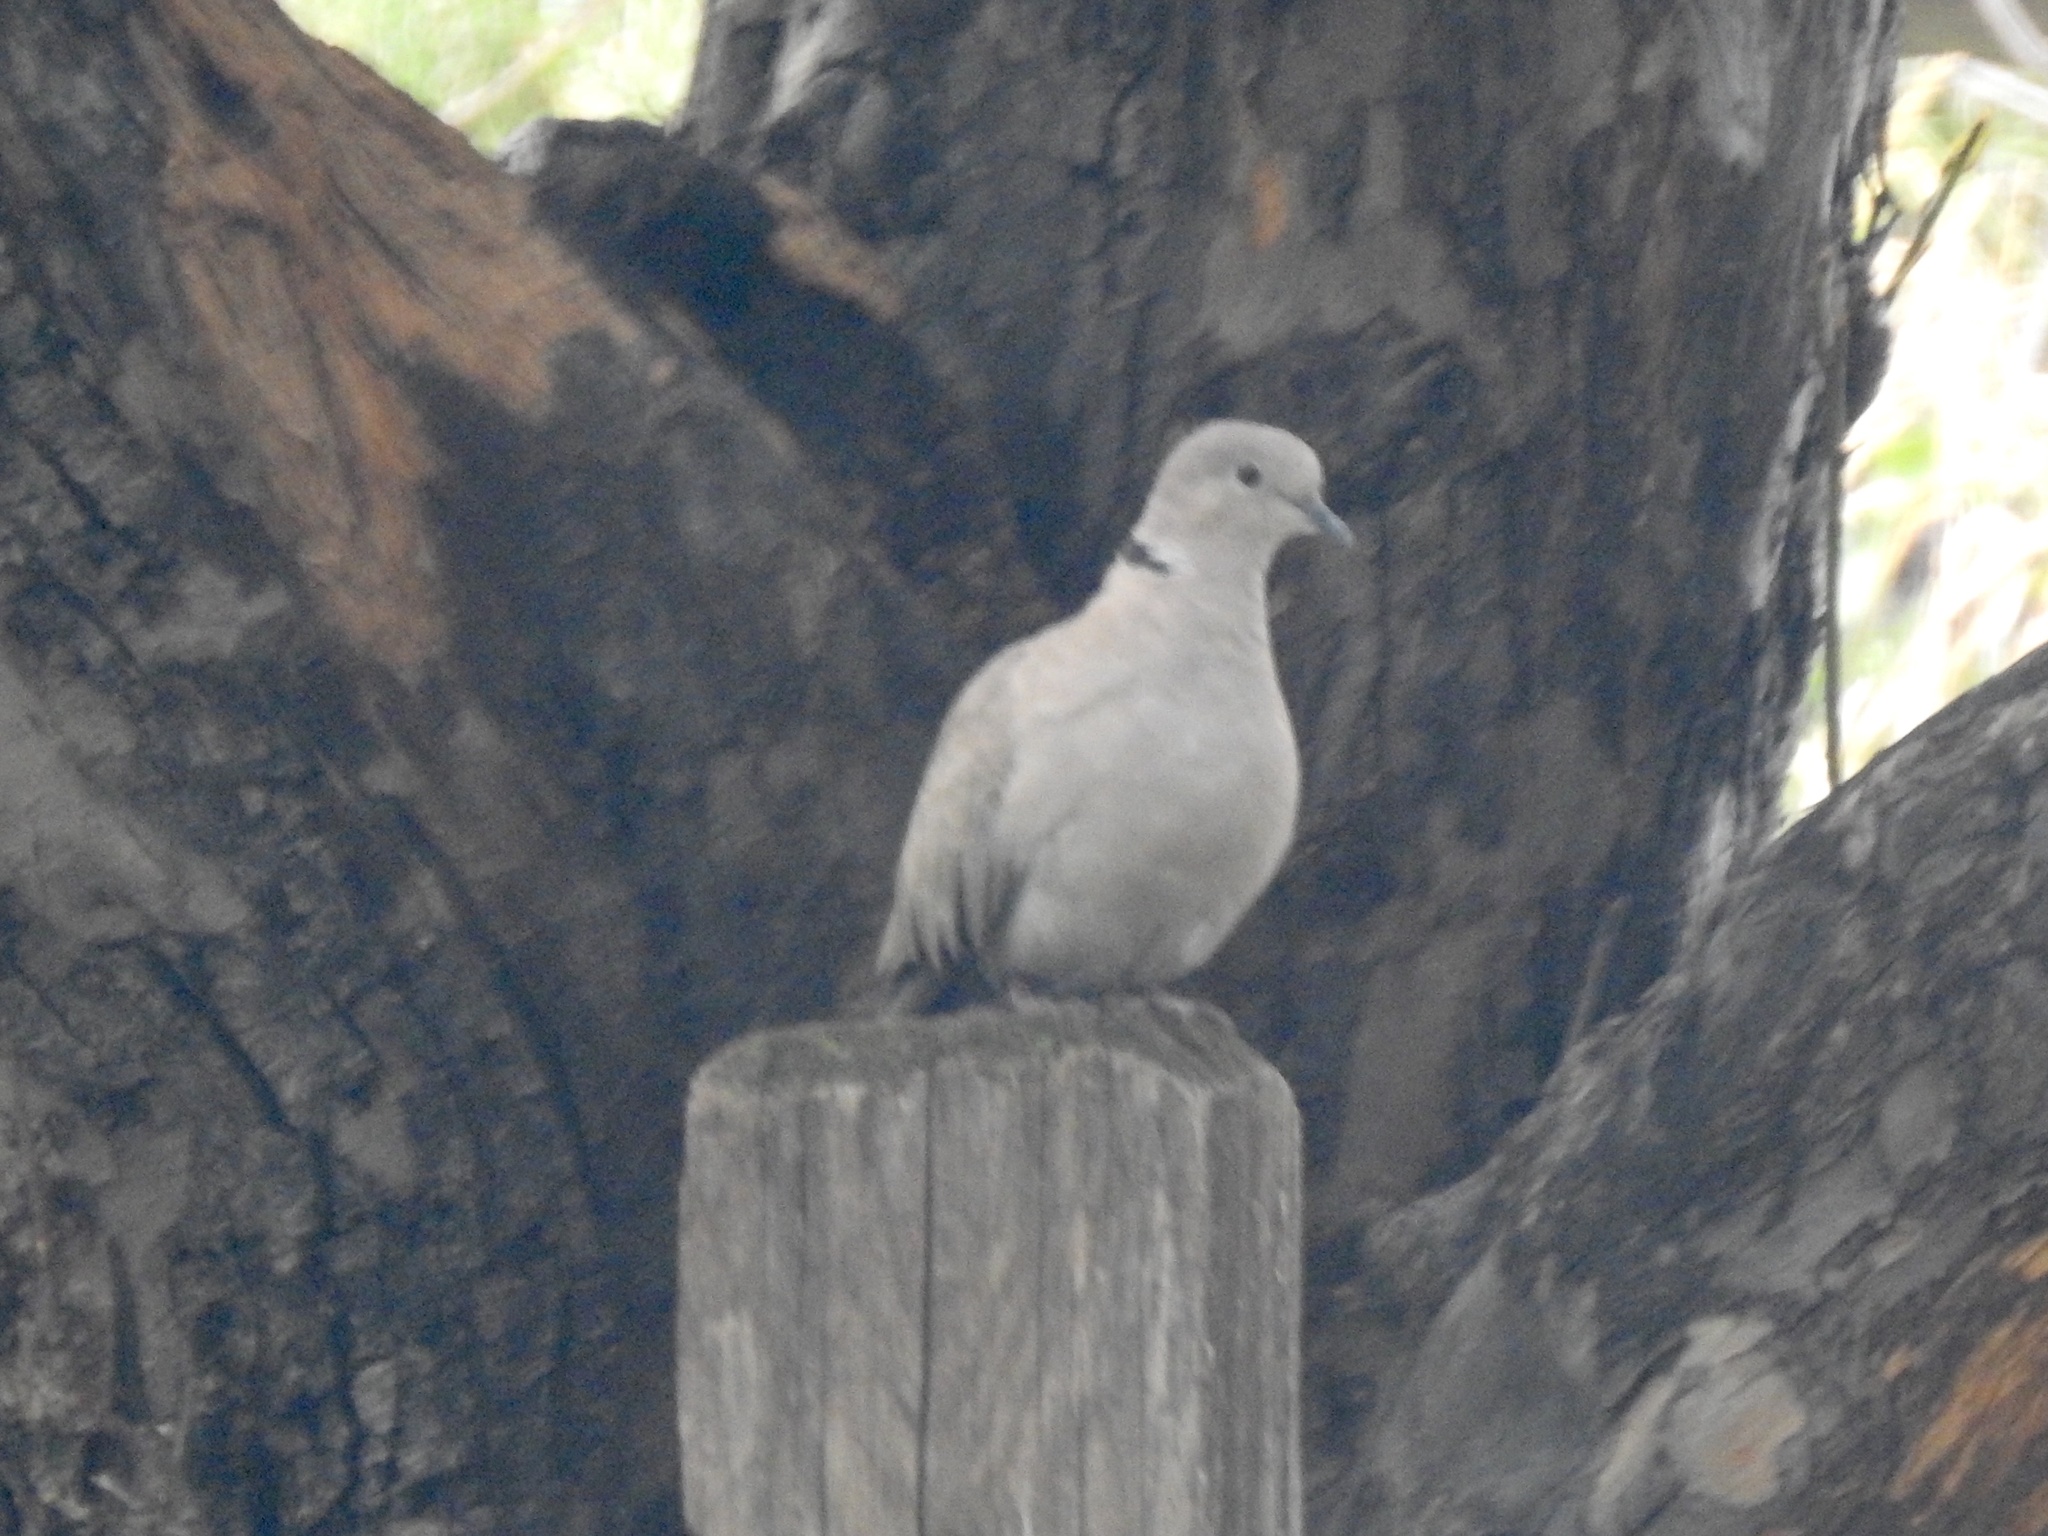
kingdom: Animalia
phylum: Chordata
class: Aves
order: Columbiformes
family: Columbidae
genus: Streptopelia
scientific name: Streptopelia decaocto
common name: Eurasian collared dove
